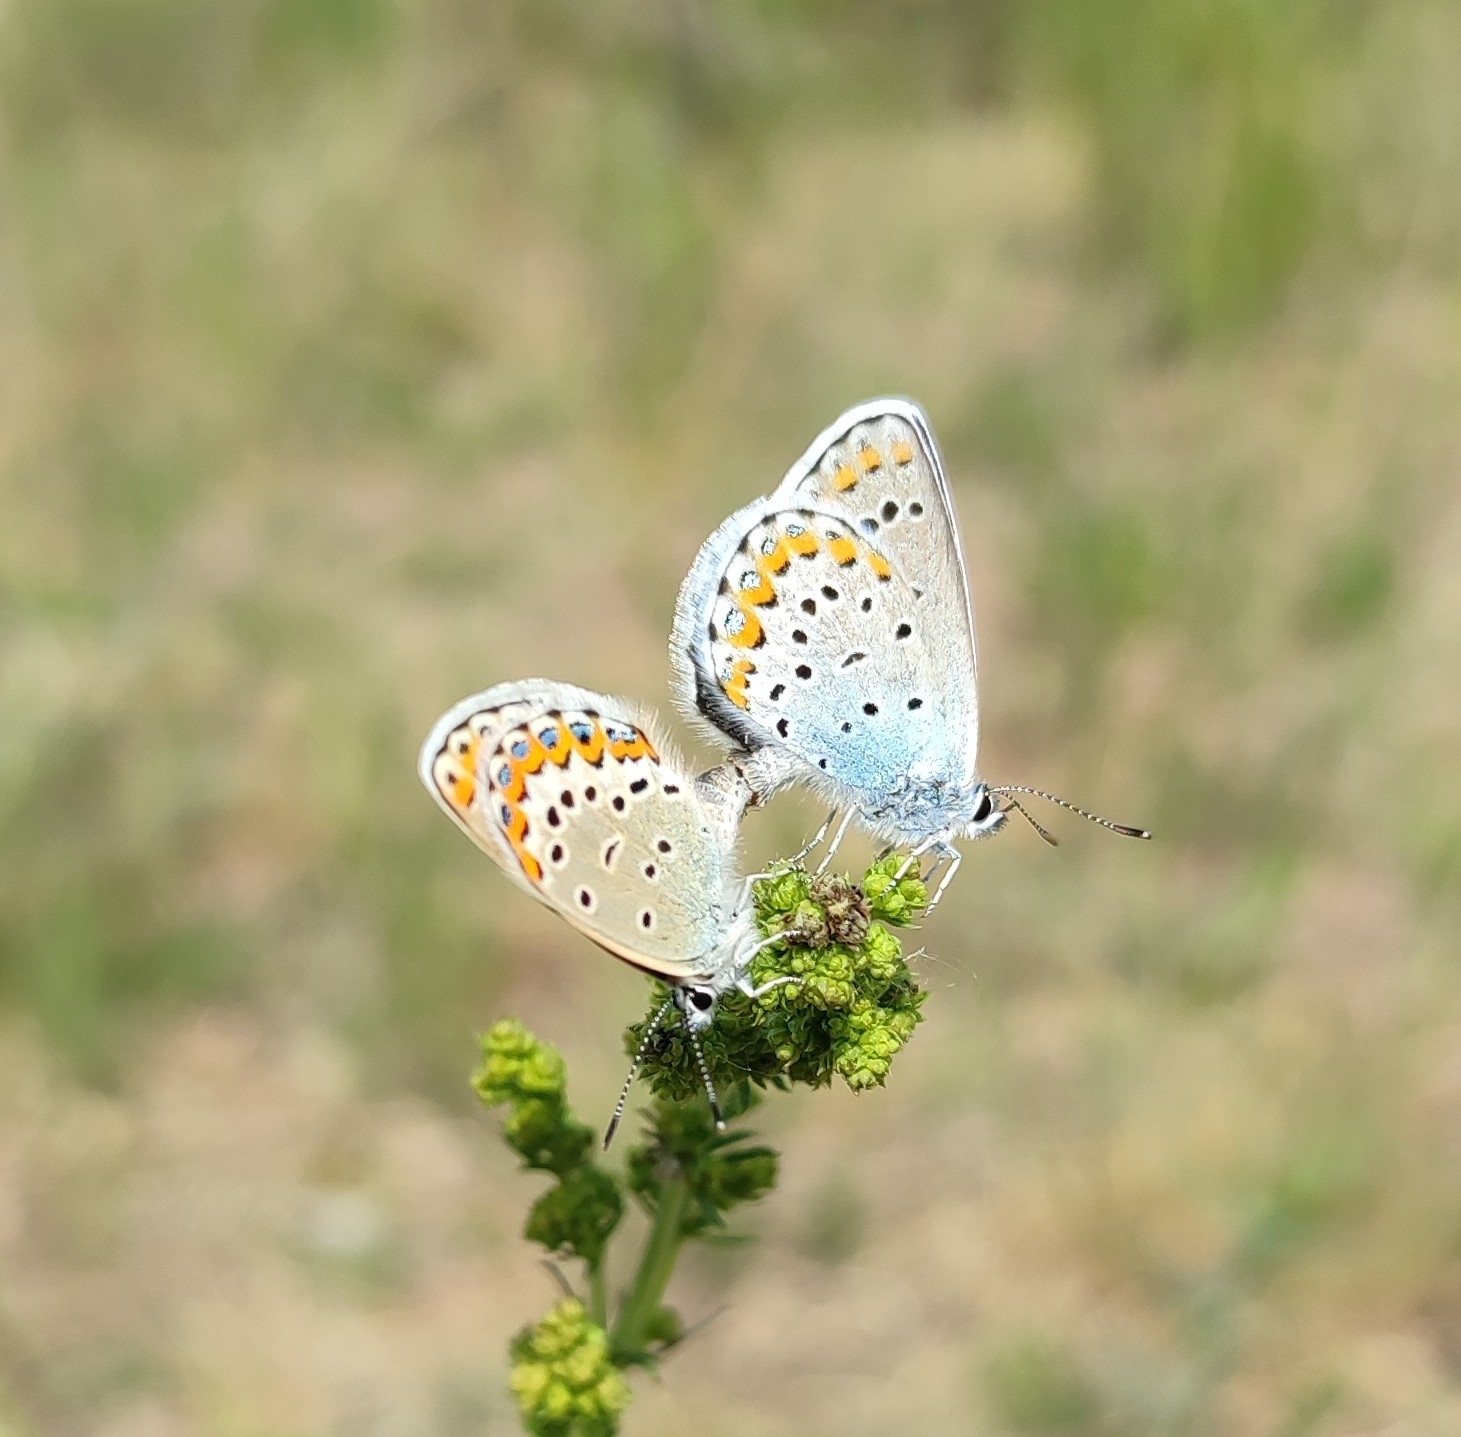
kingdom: Animalia
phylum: Arthropoda
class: Insecta
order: Lepidoptera
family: Lycaenidae
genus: Plebejus
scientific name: Plebejus argyrognomon
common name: Reverdin's blue
